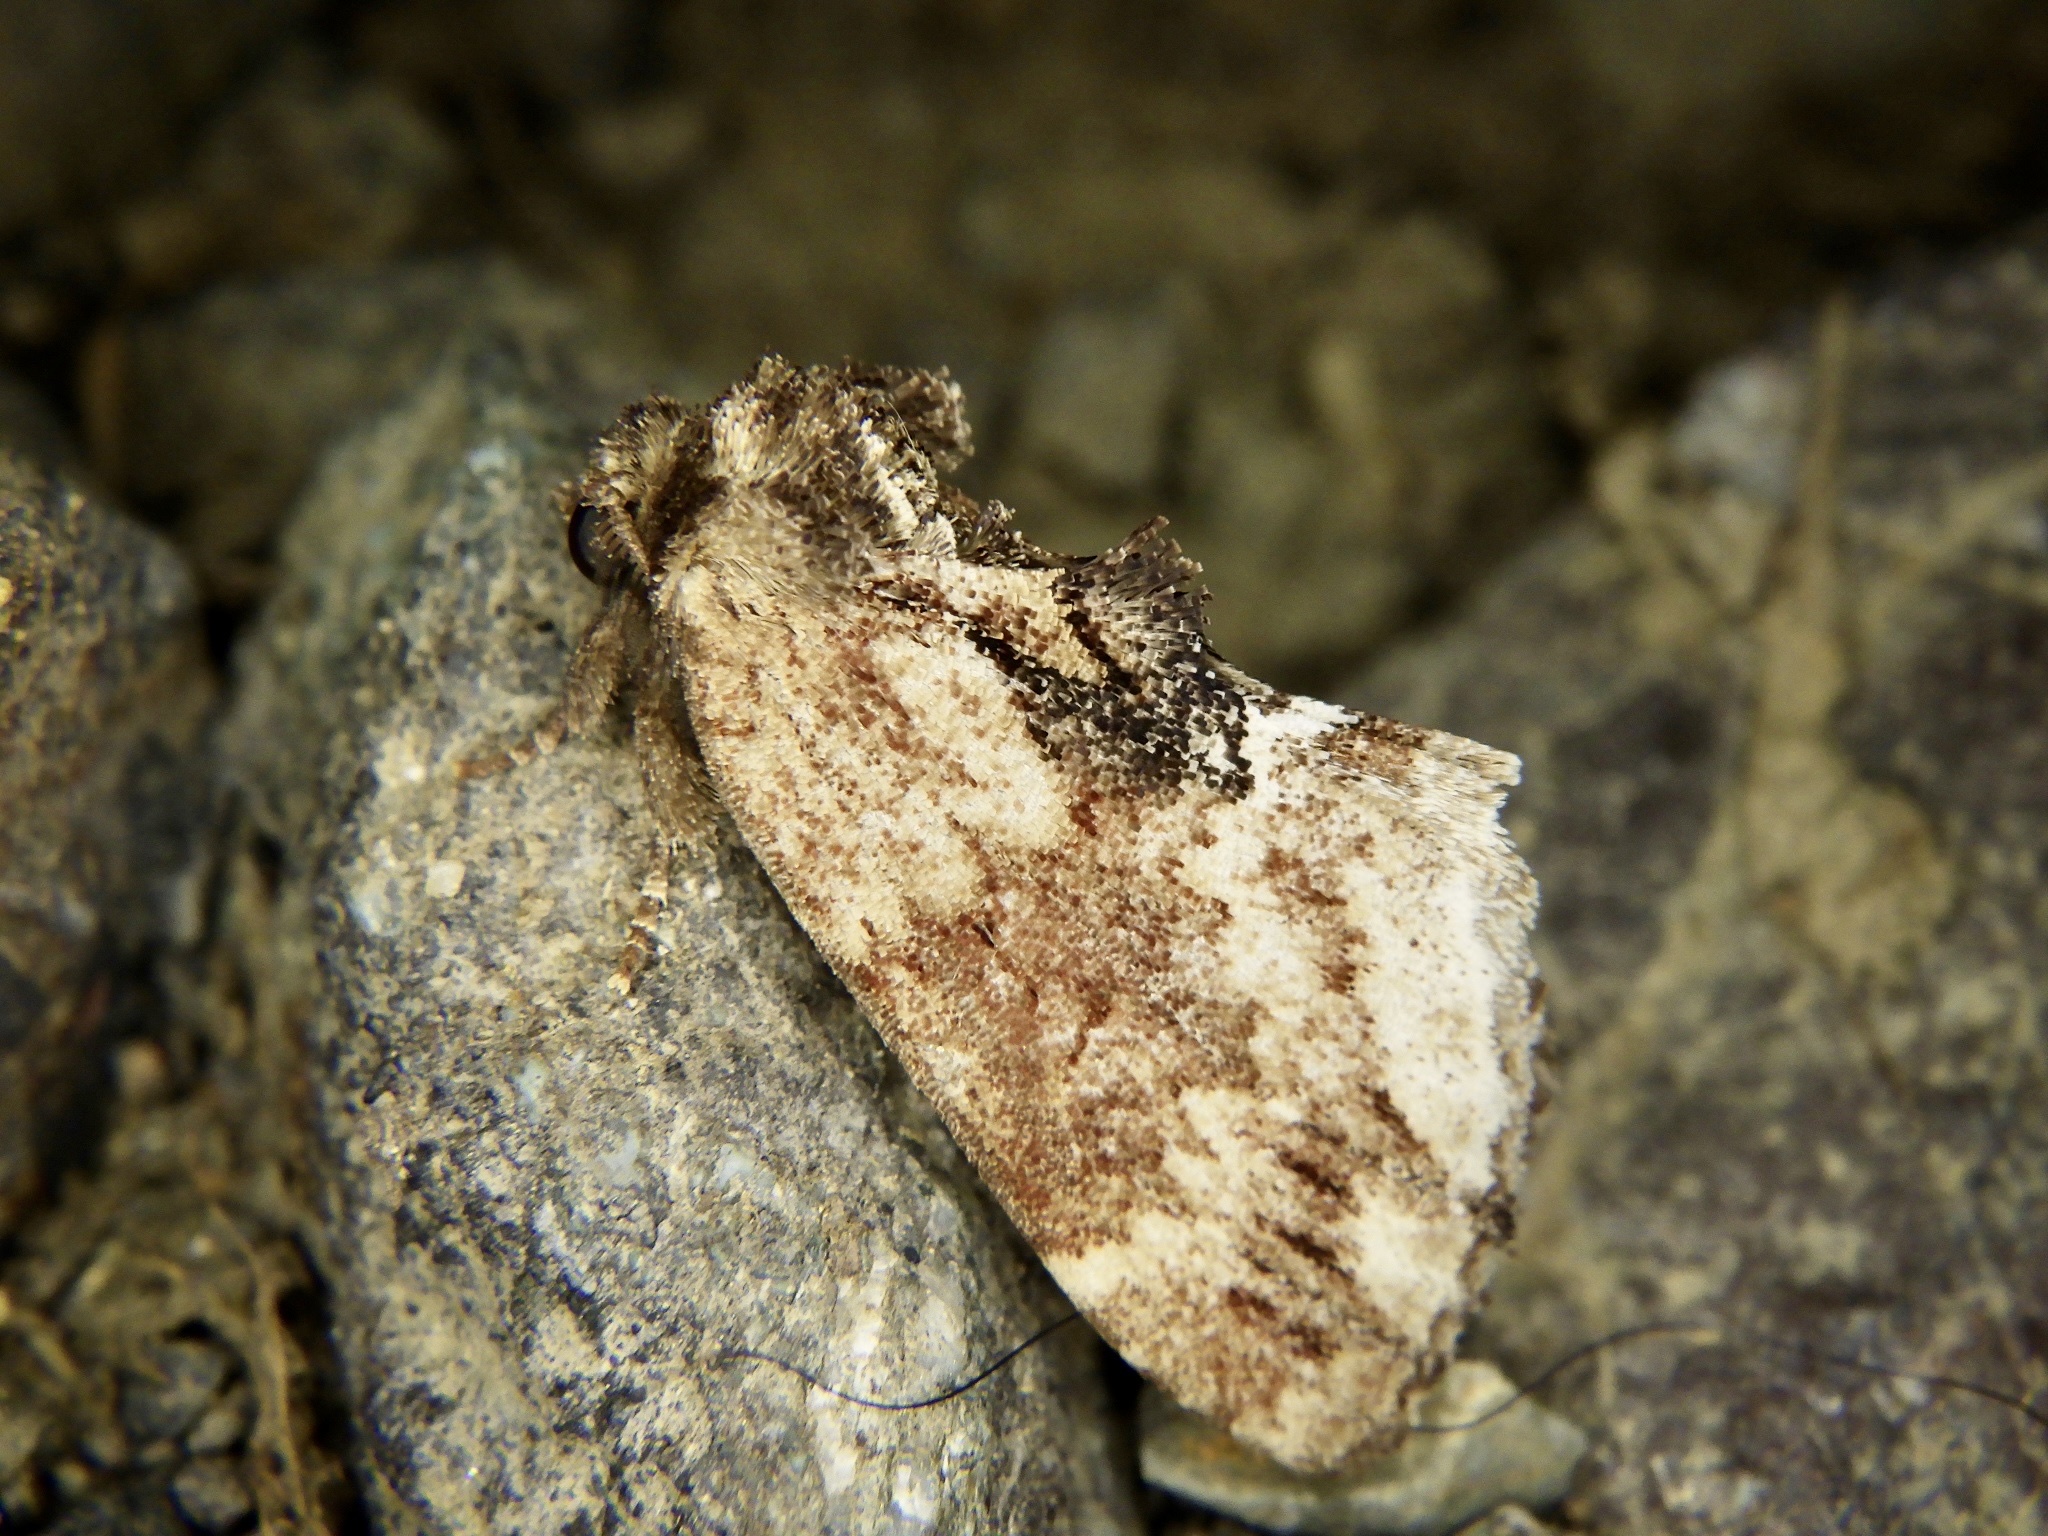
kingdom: Animalia
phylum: Arthropoda
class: Insecta
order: Lepidoptera
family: Notodontidae
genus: Lophontosia
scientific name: Lophontosia
